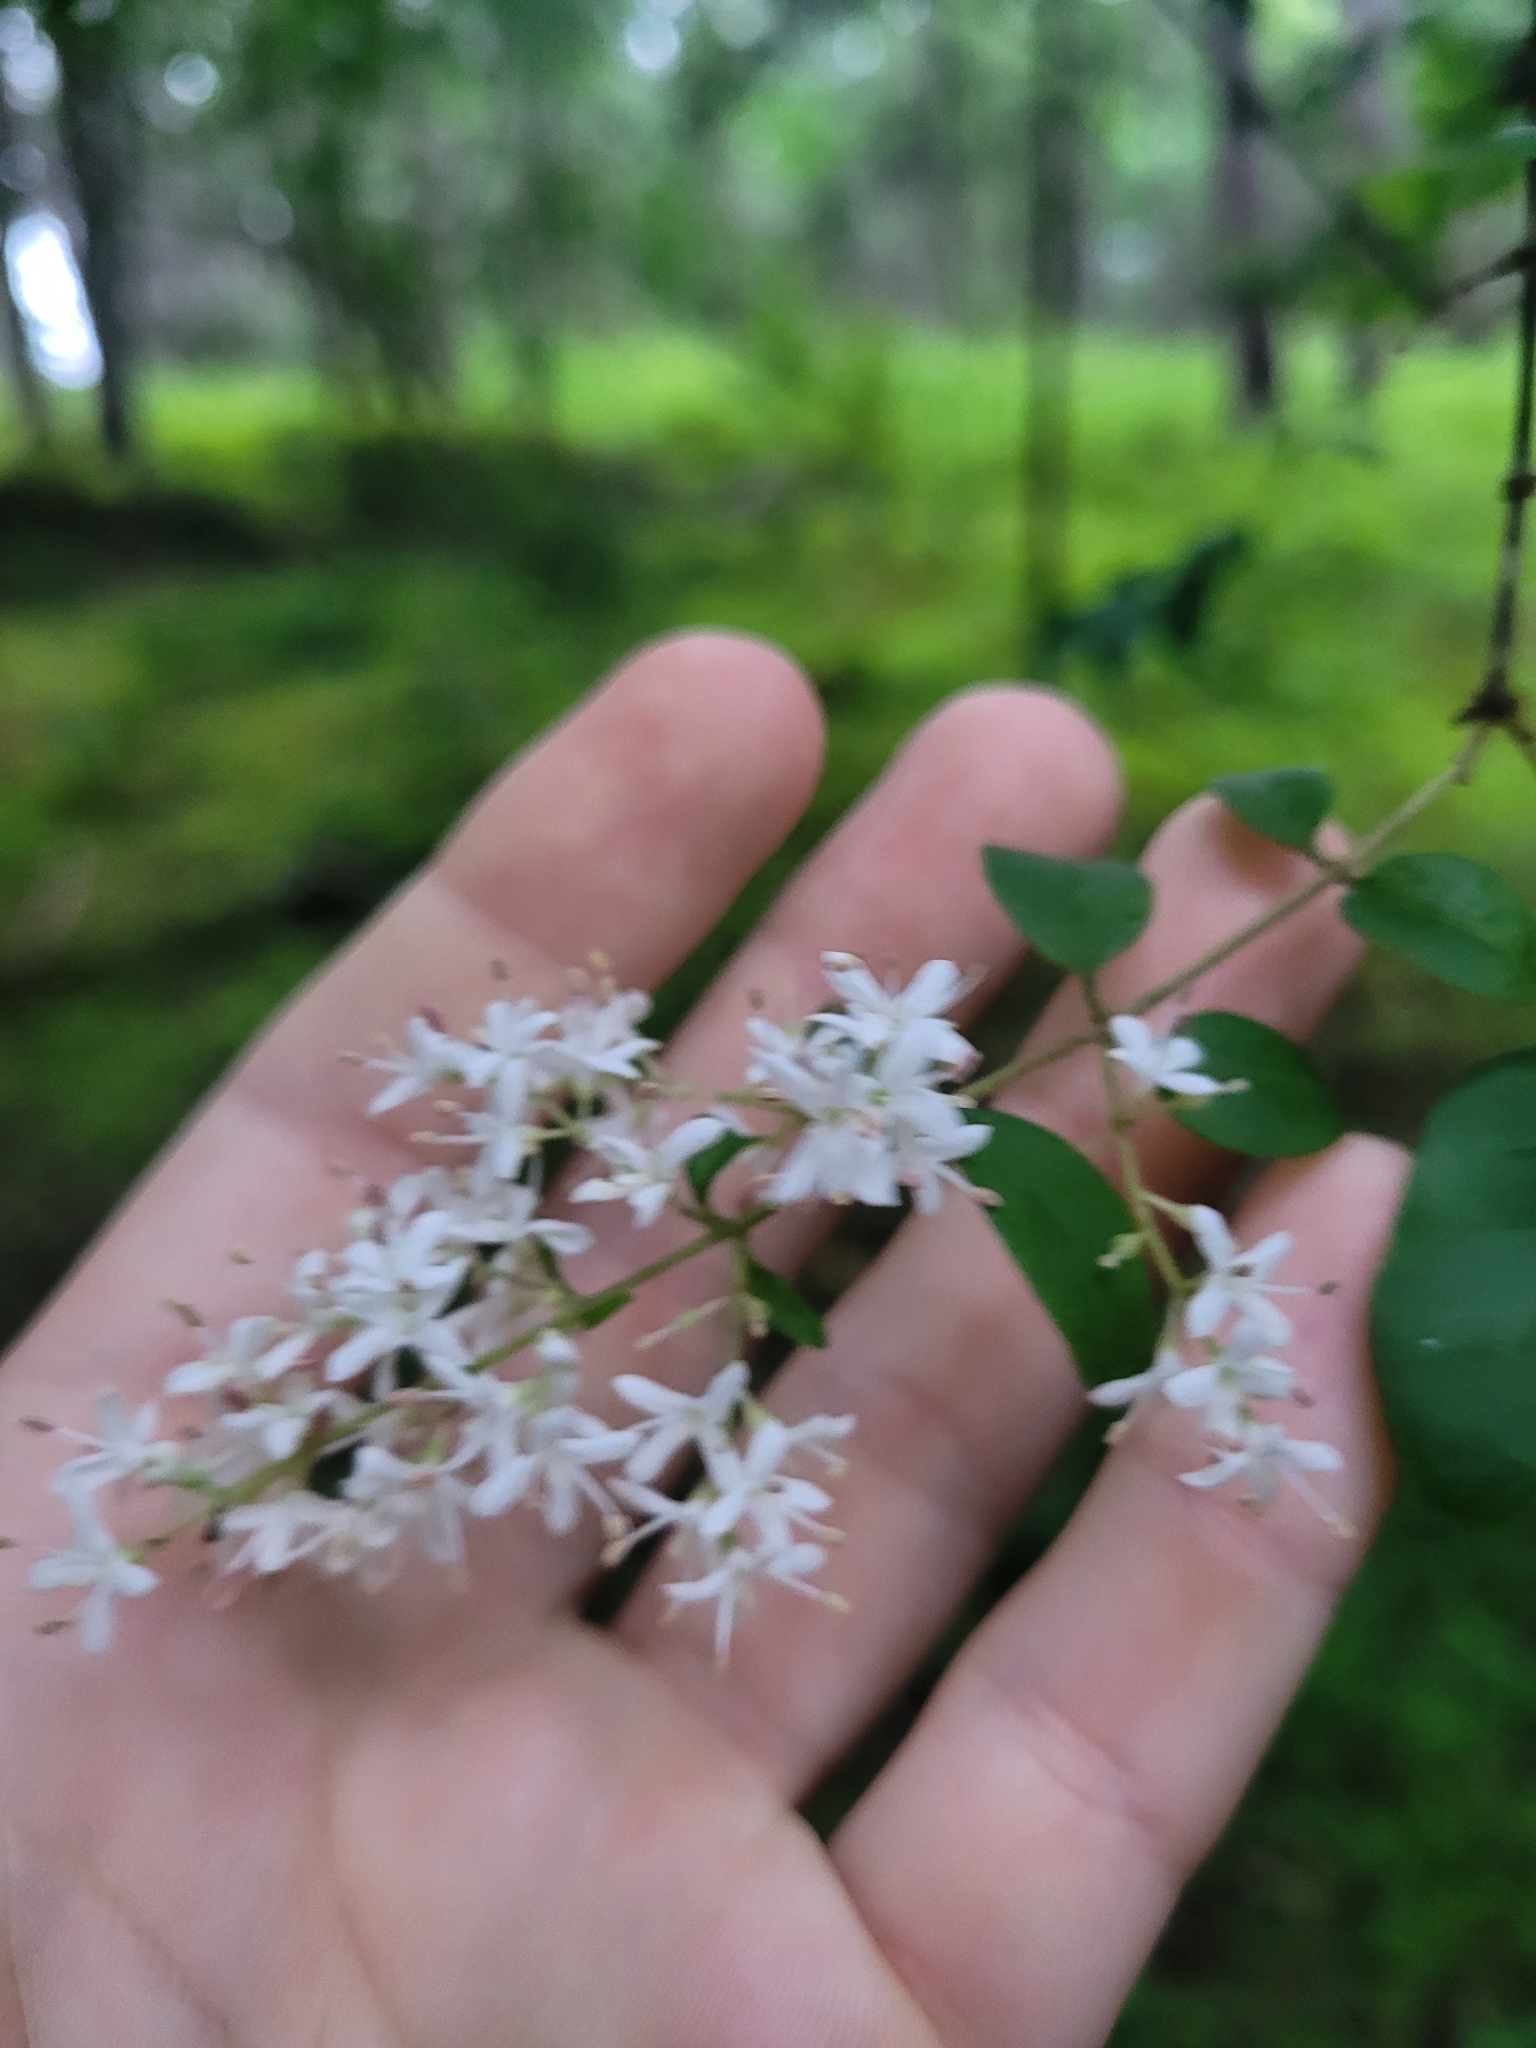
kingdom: Plantae
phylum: Tracheophyta
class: Magnoliopsida
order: Lamiales
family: Oleaceae
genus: Ligustrum
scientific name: Ligustrum sinense
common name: Chinese privet
